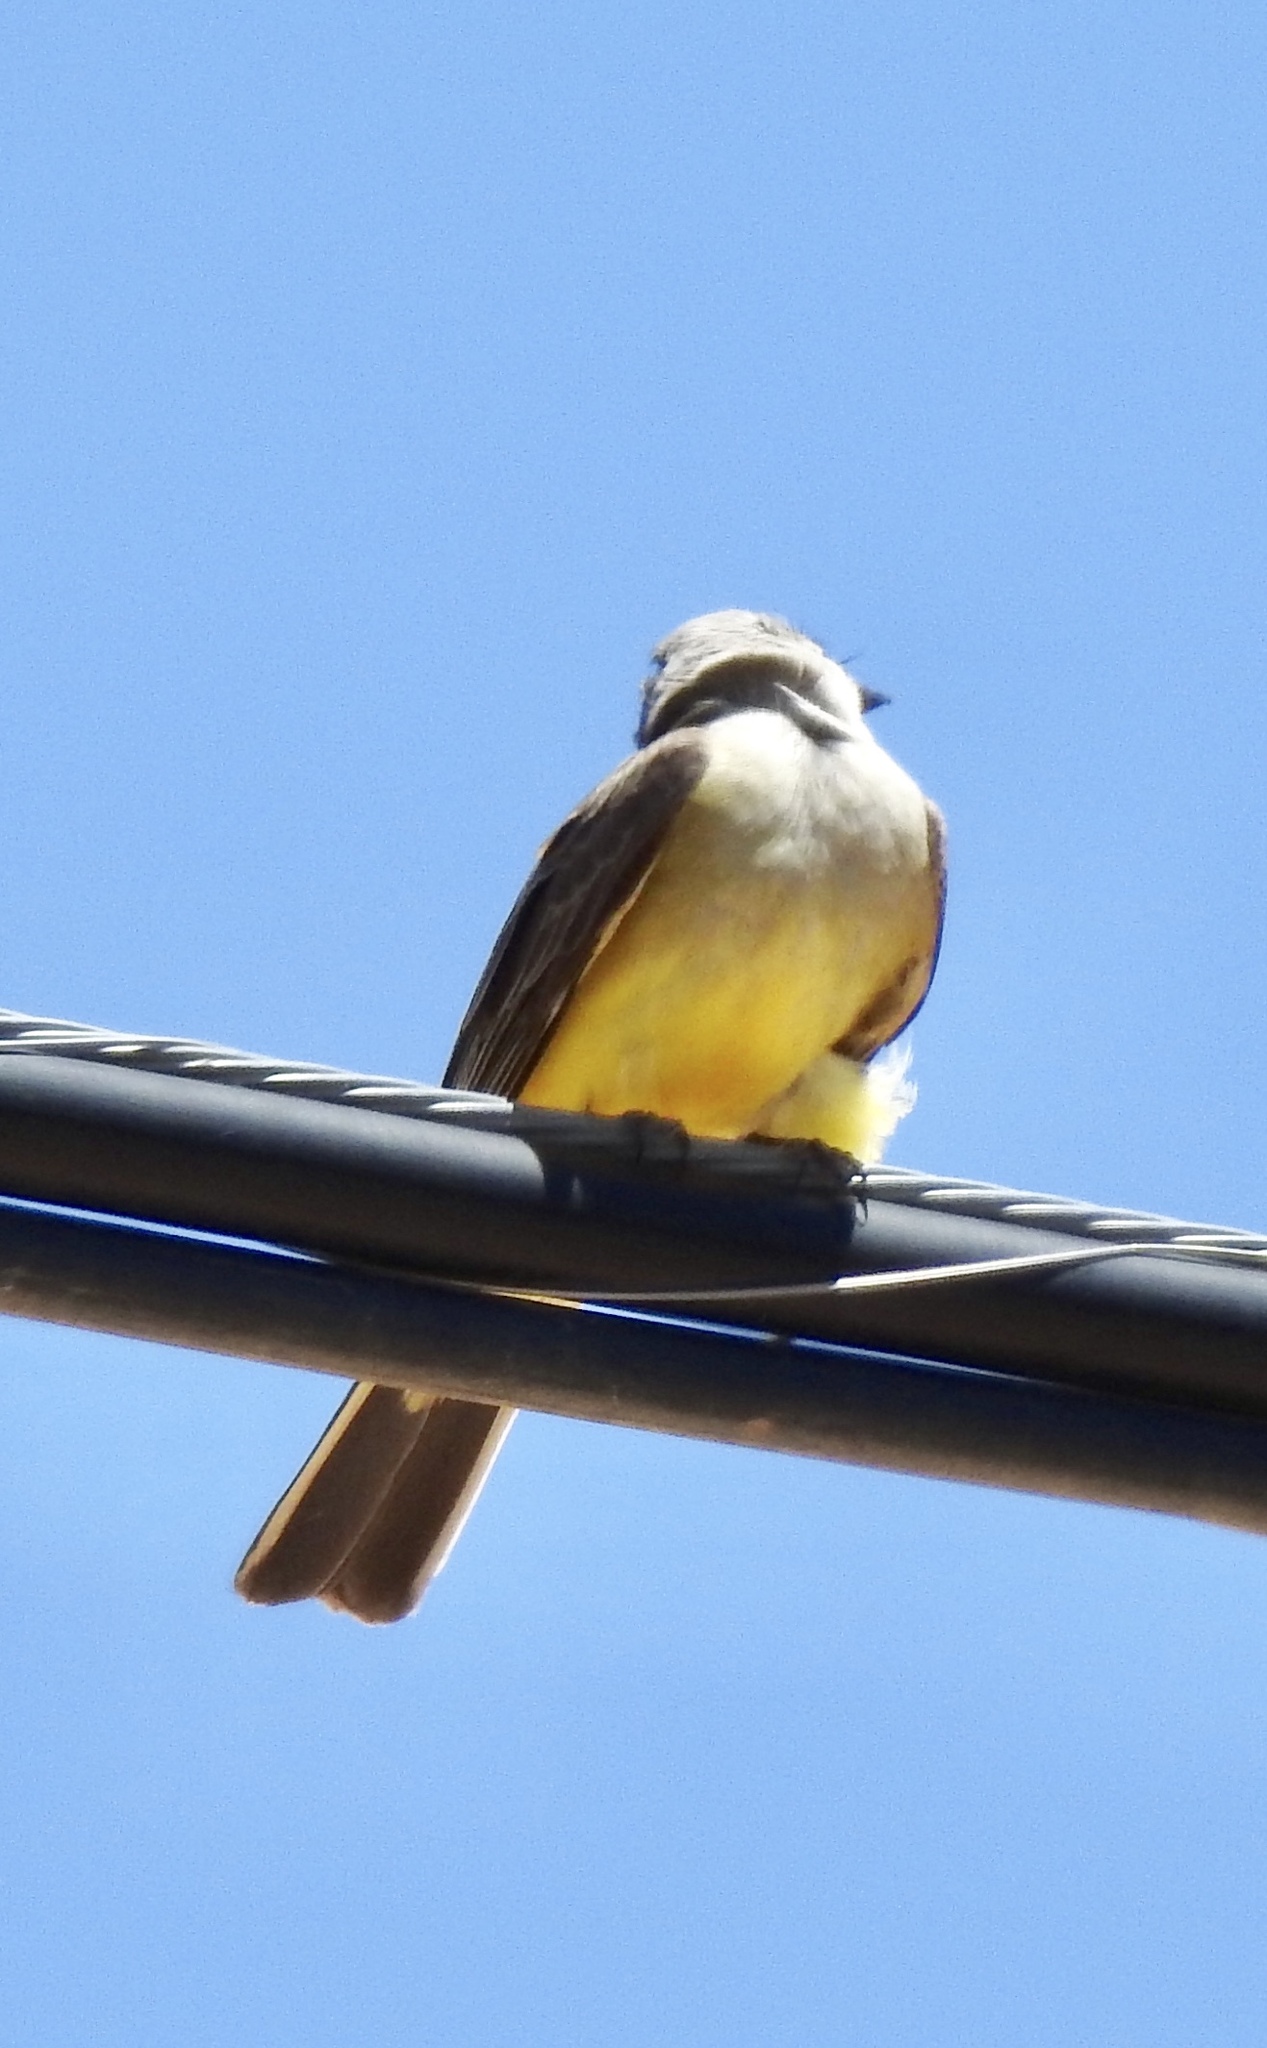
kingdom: Animalia
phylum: Chordata
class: Aves
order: Passeriformes
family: Tyrannidae
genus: Tyrannus
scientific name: Tyrannus verticalis
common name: Western kingbird
